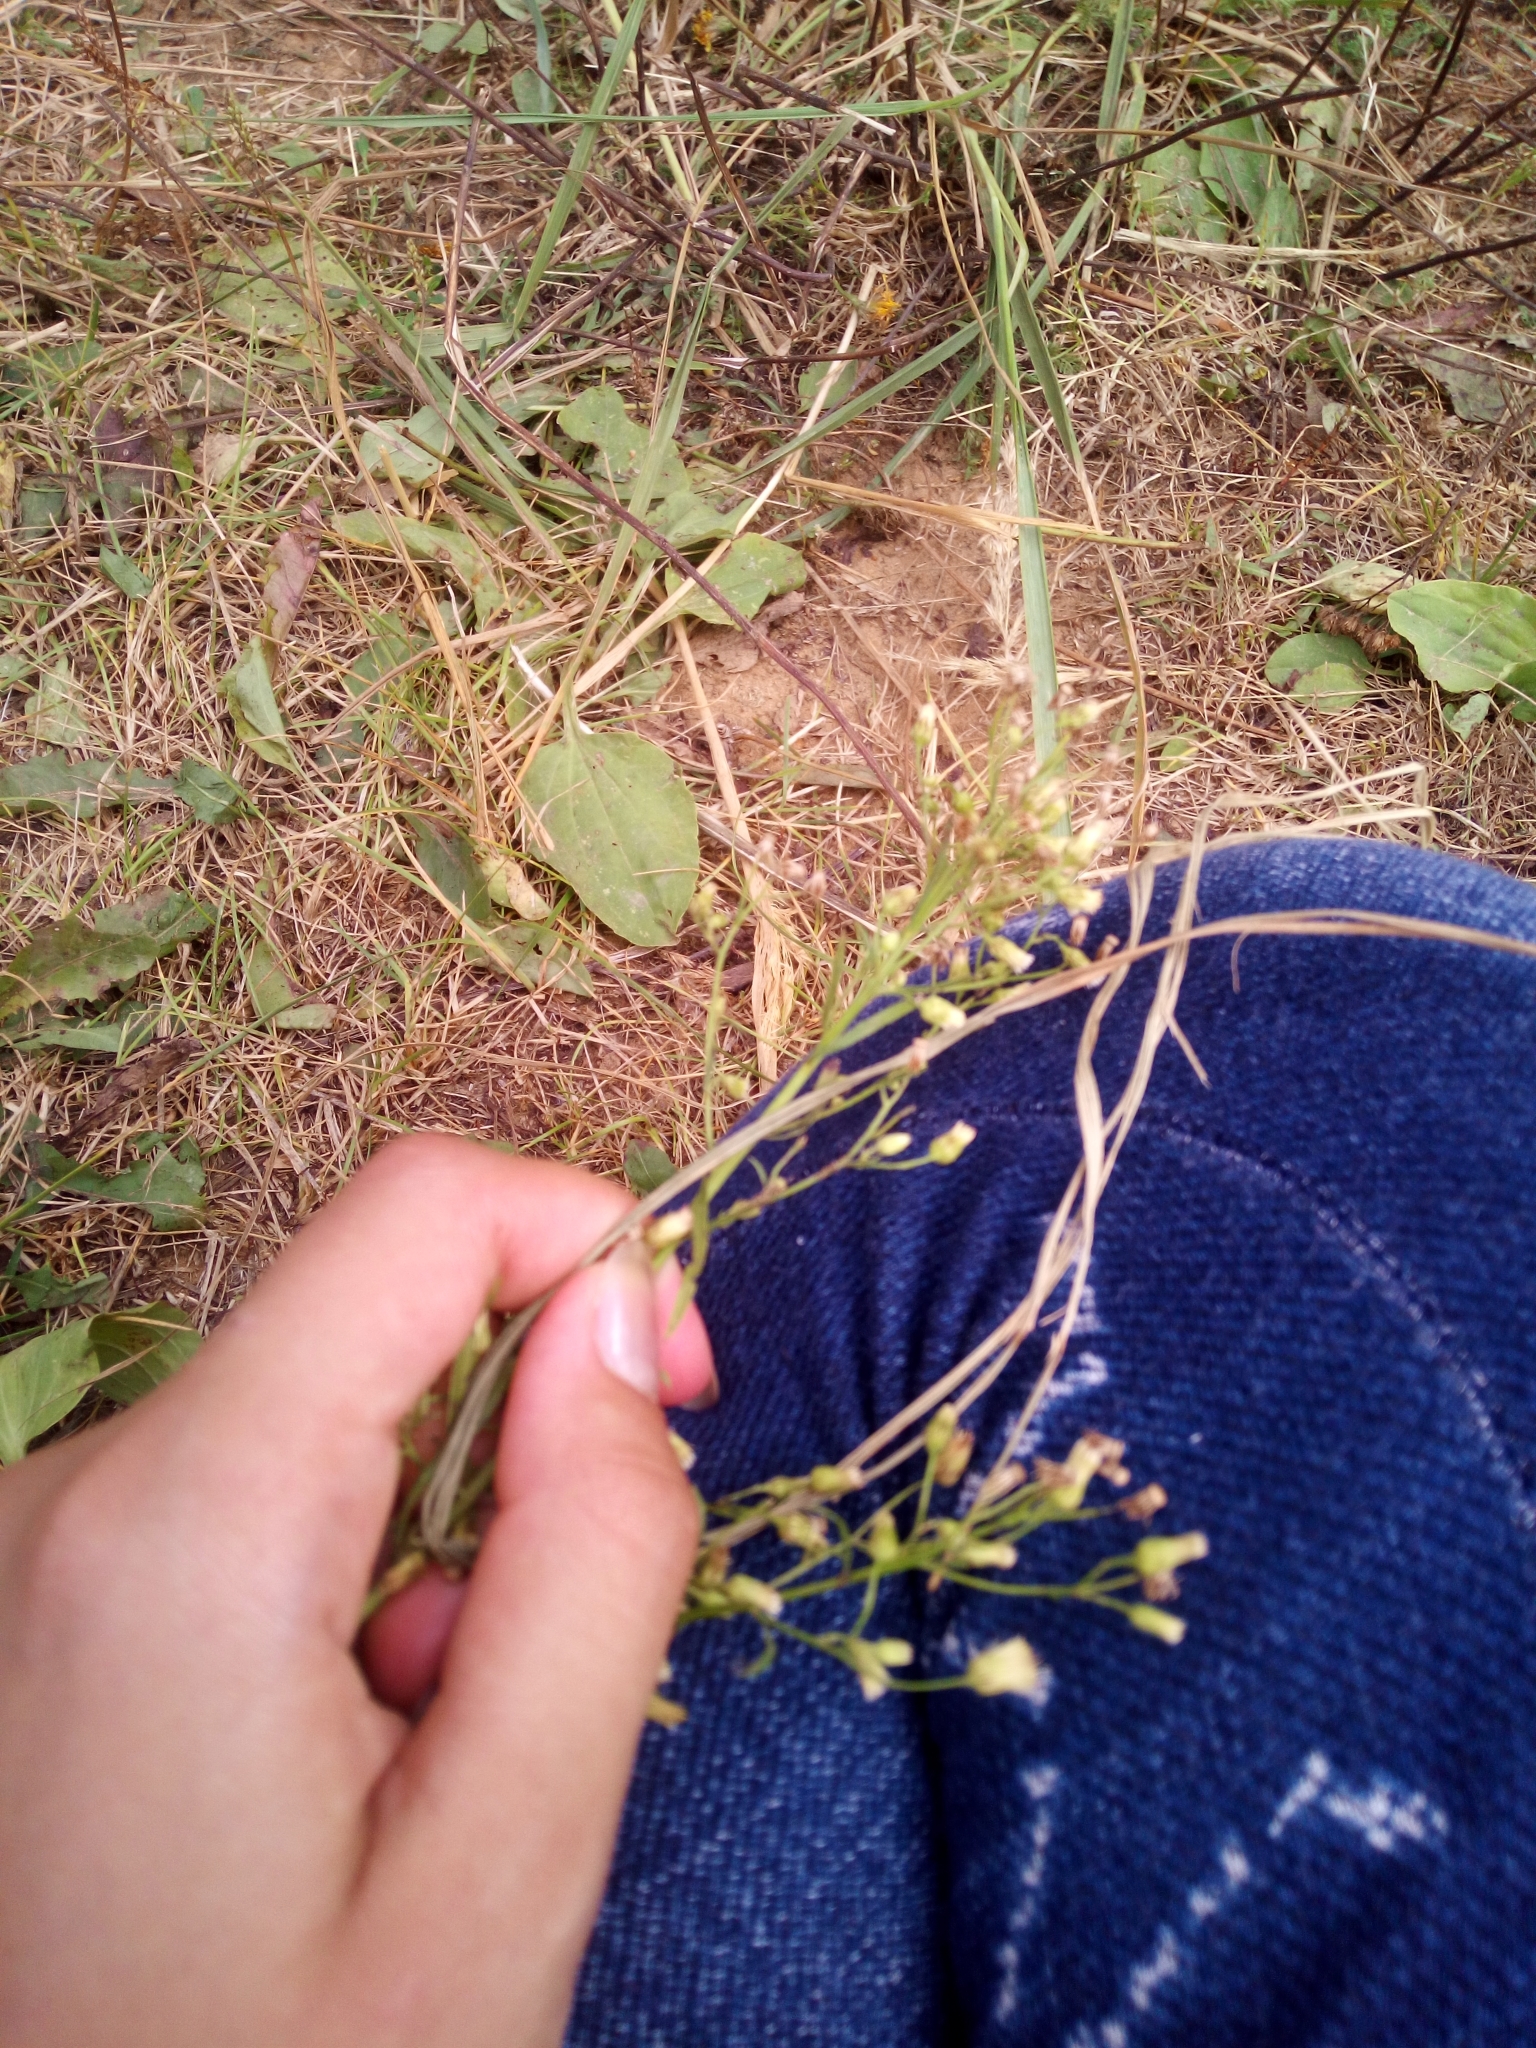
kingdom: Plantae
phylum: Tracheophyta
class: Magnoliopsida
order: Asterales
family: Asteraceae
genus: Erigeron
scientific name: Erigeron canadensis
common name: Canadian fleabane
